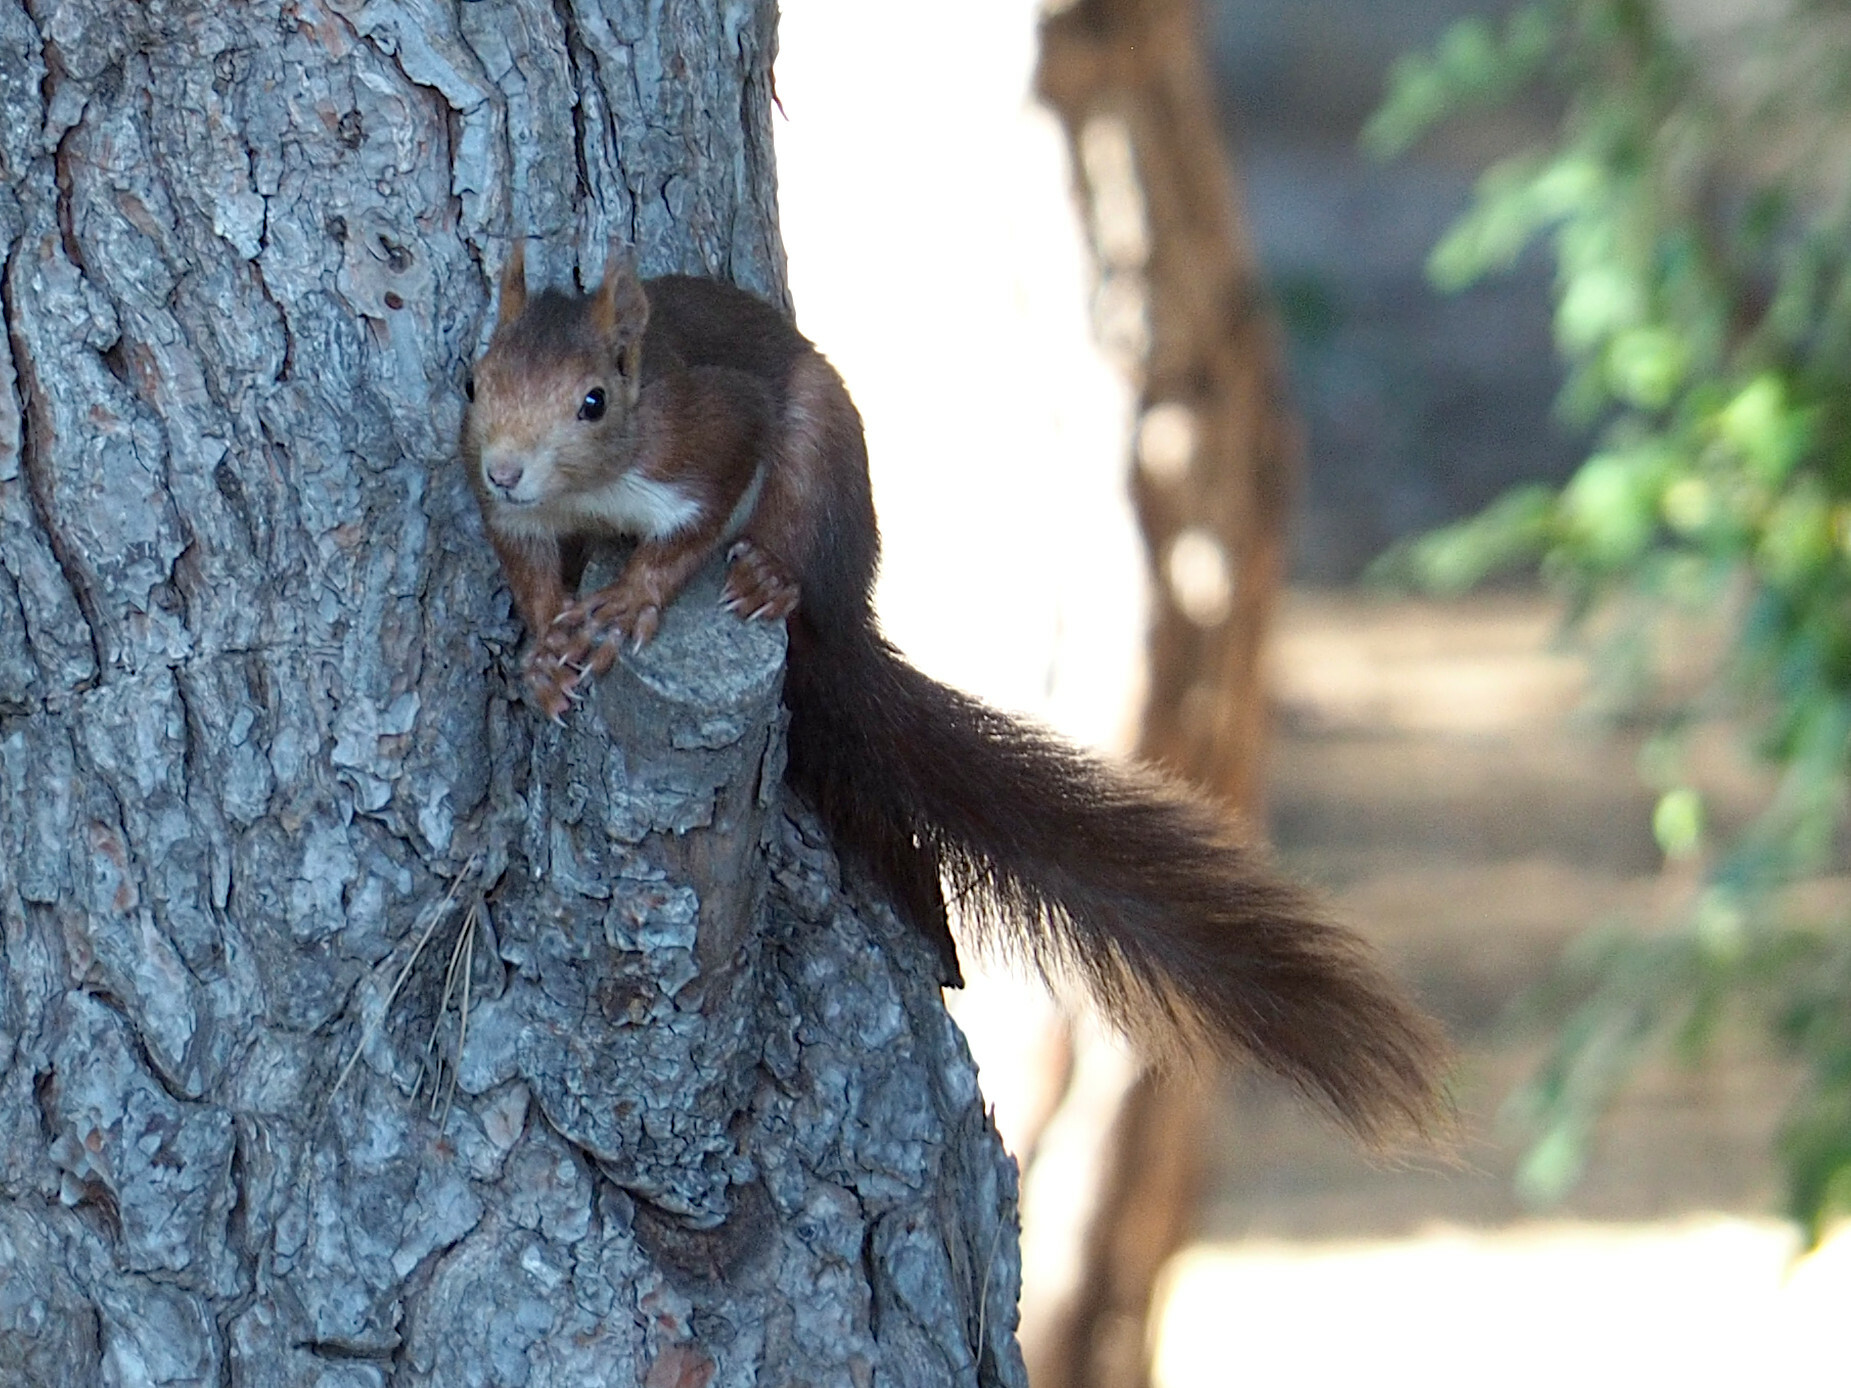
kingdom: Animalia
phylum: Chordata
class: Mammalia
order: Rodentia
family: Sciuridae
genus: Sciurus
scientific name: Sciurus vulgaris
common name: Eurasian red squirrel
